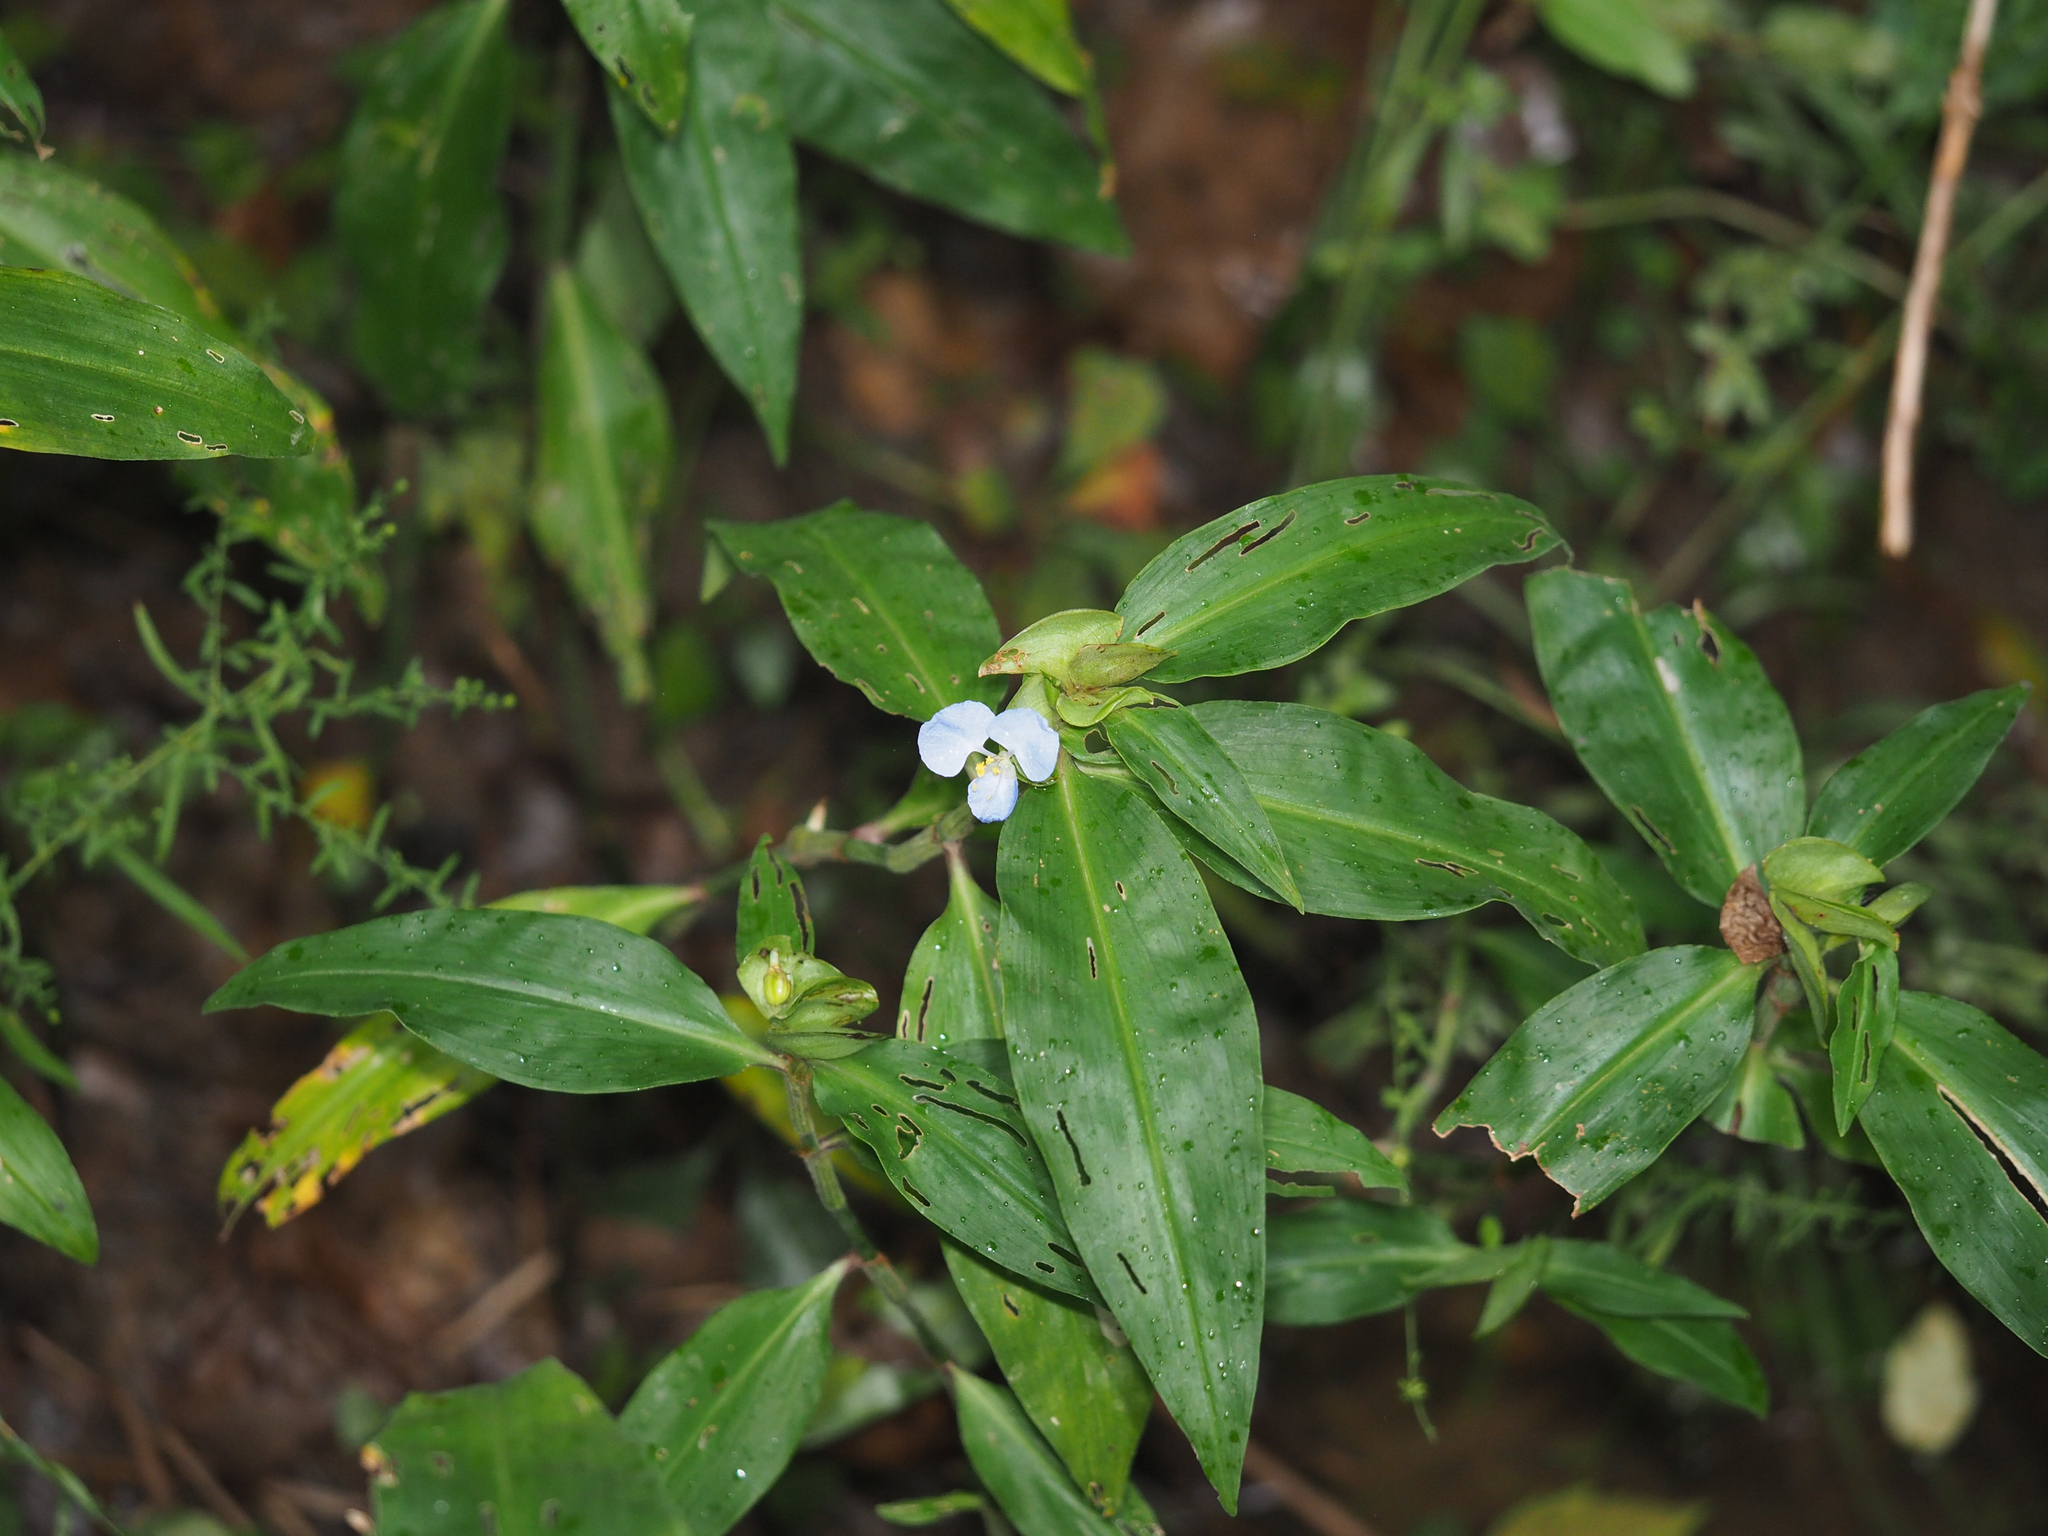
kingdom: Plantae
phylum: Tracheophyta
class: Liliopsida
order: Commelinales
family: Commelinaceae
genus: Commelina
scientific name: Commelina virginica
